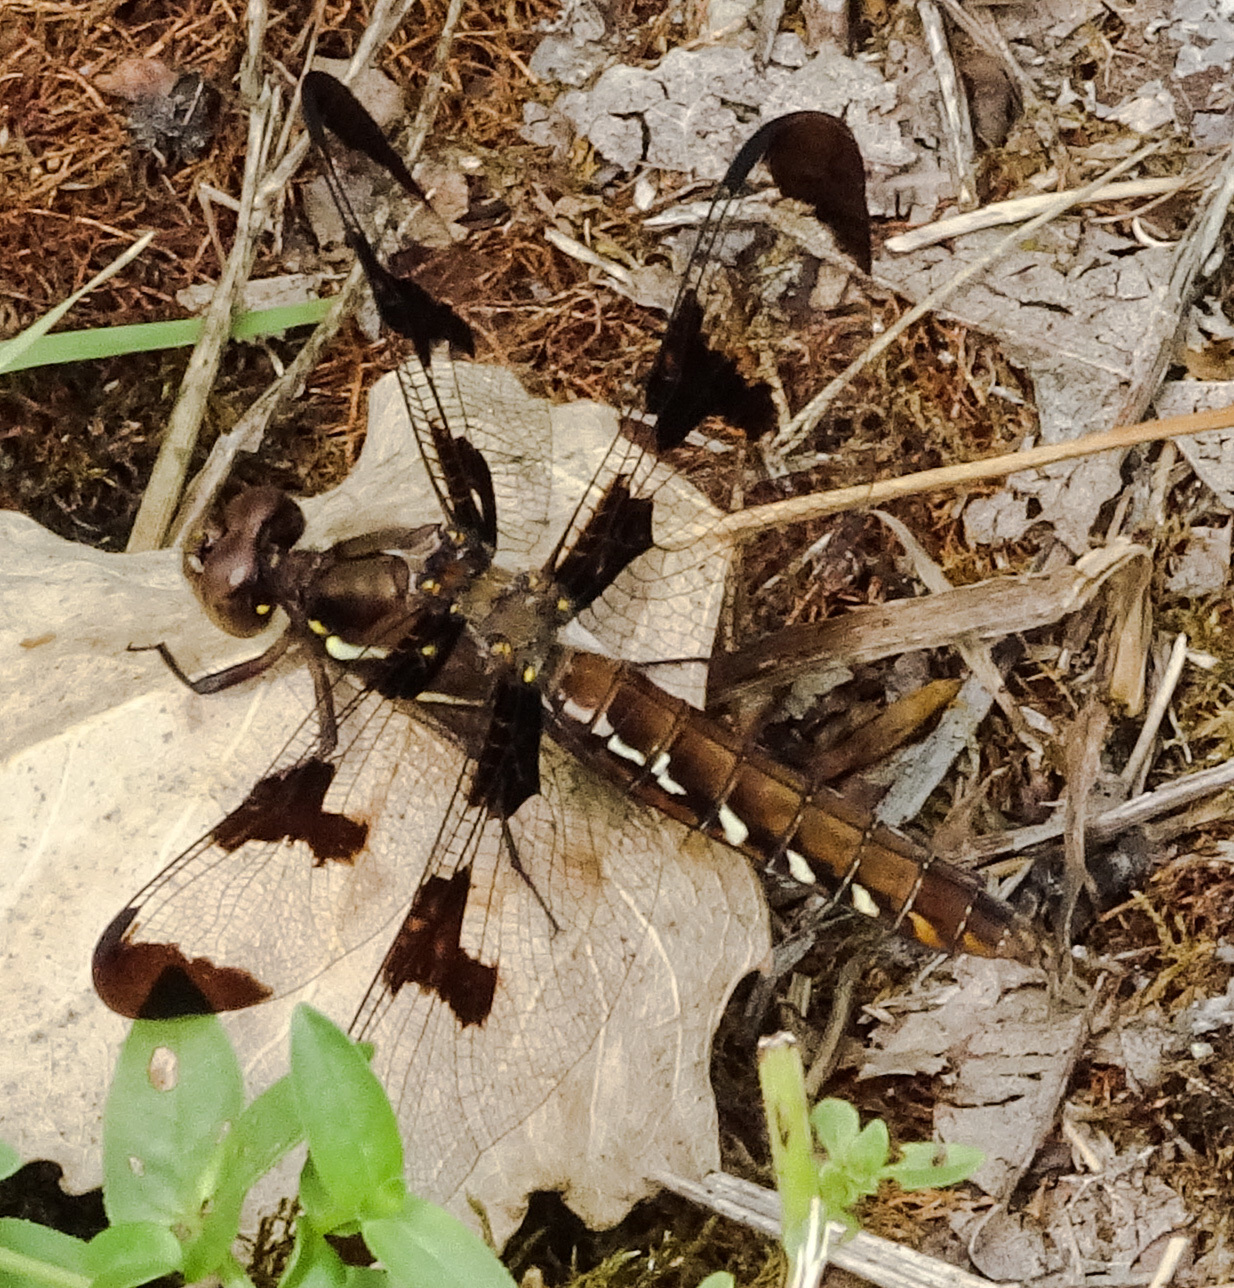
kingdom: Animalia
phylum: Arthropoda
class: Insecta
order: Odonata
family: Libellulidae
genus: Plathemis
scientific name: Plathemis lydia
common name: Common whitetail
